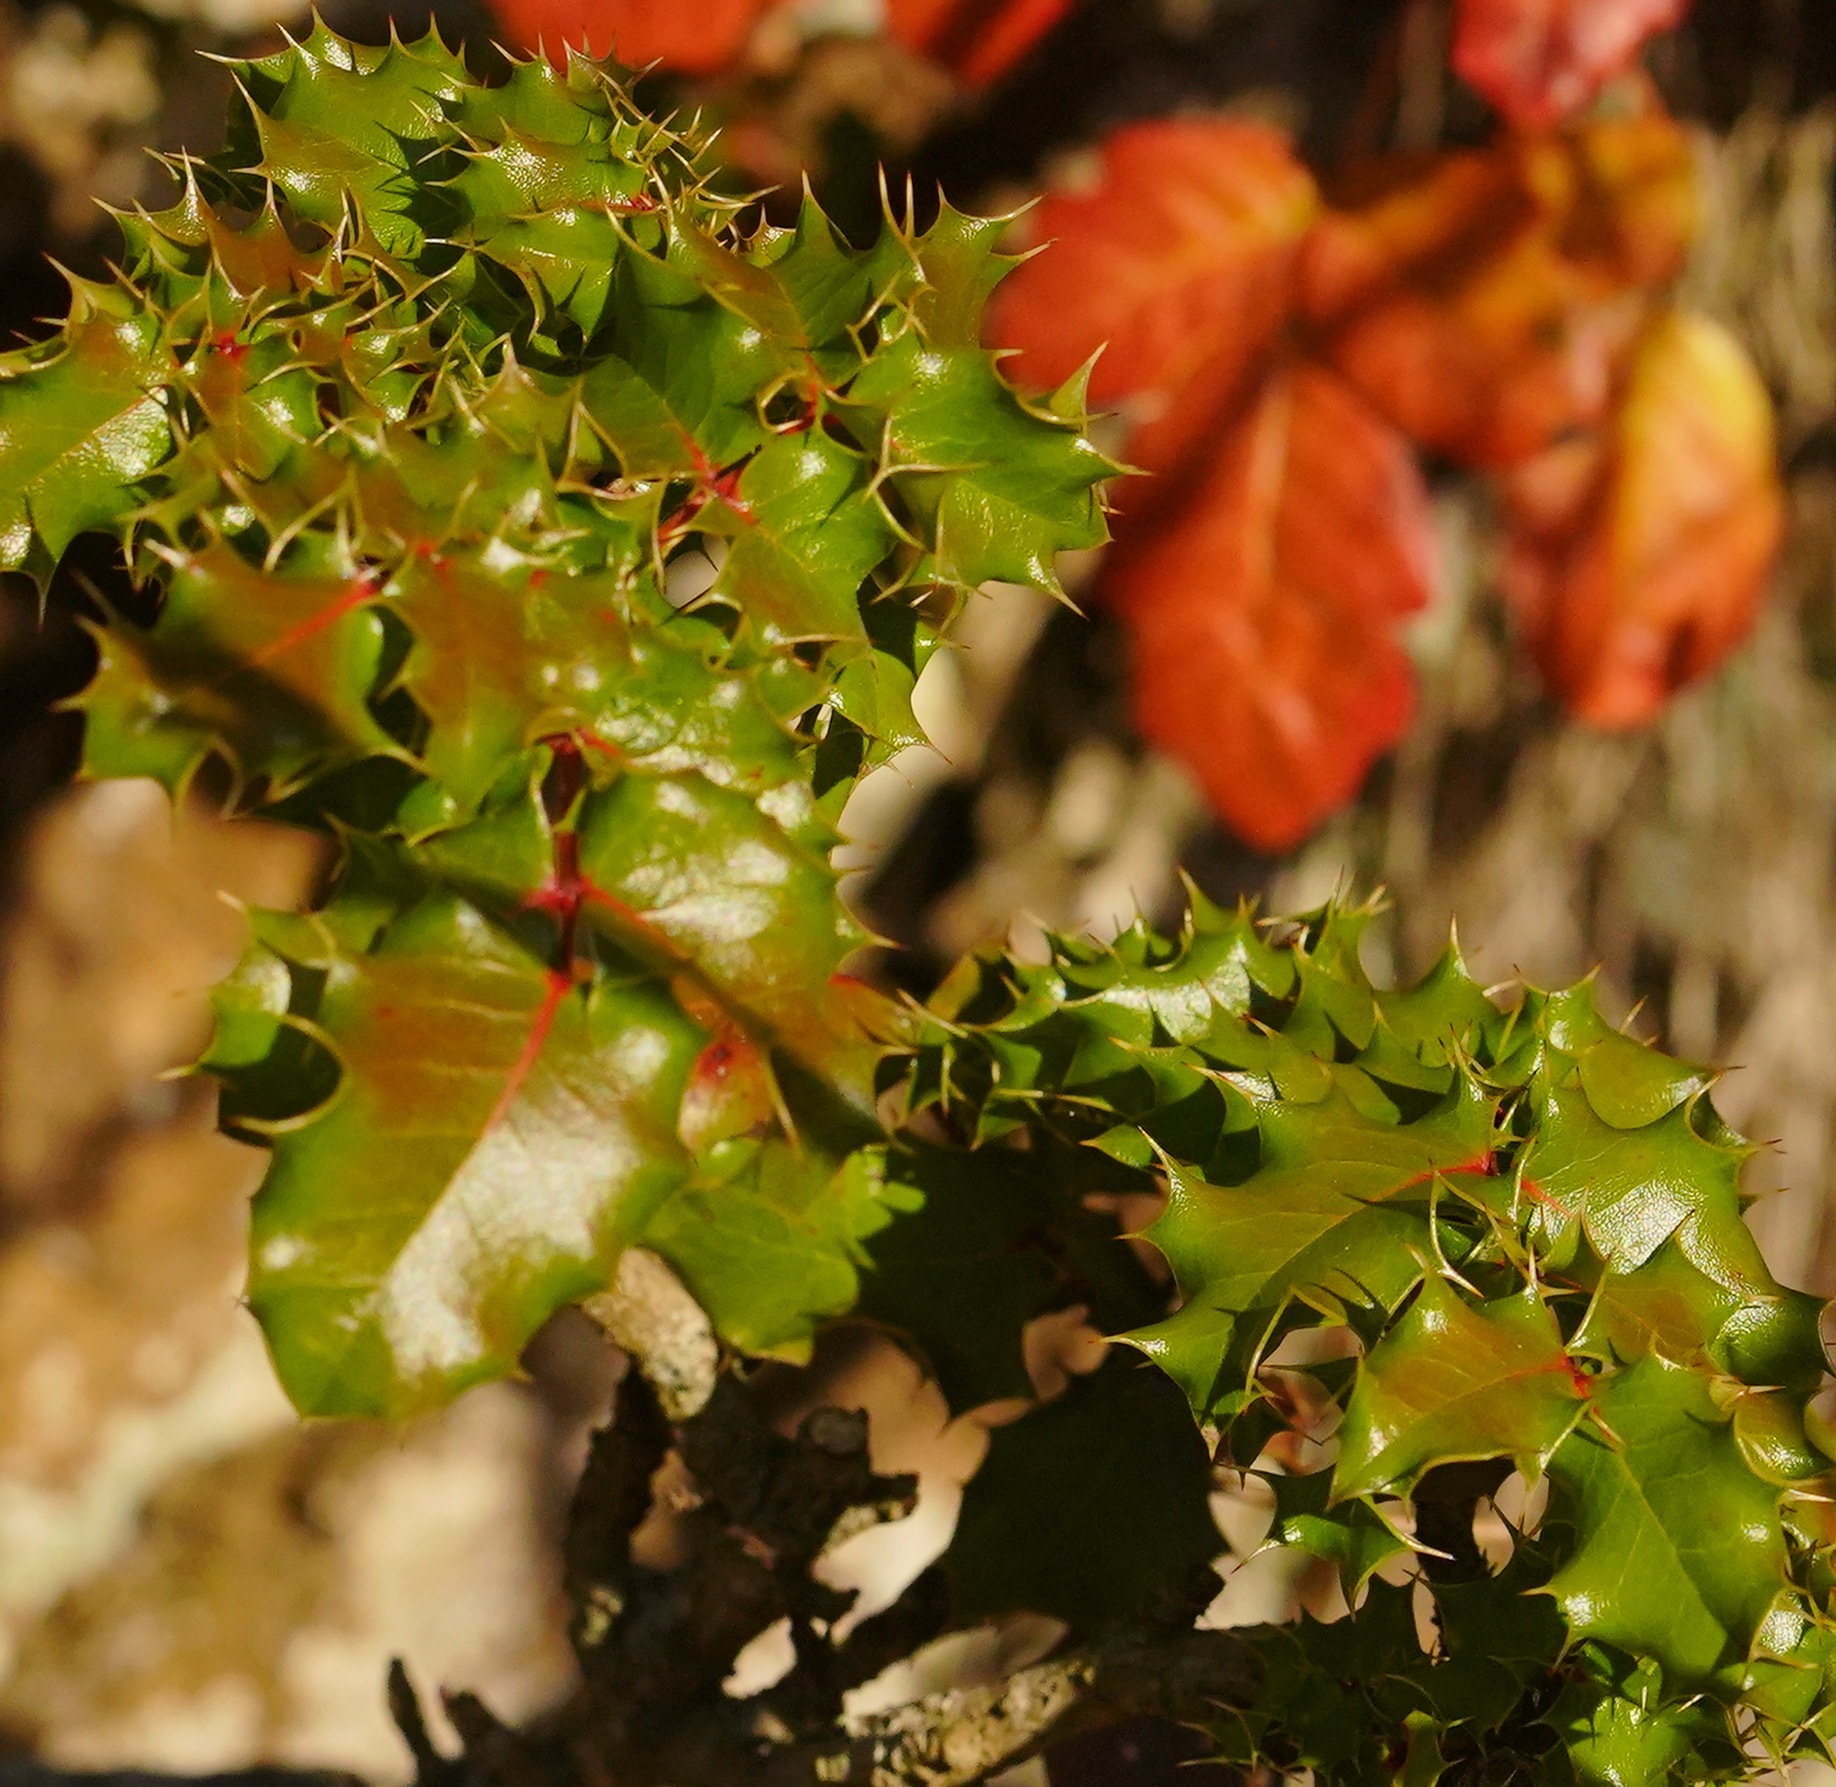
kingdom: Plantae
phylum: Tracheophyta
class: Magnoliopsida
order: Ranunculales
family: Berberidaceae
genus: Mahonia
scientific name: Mahonia
